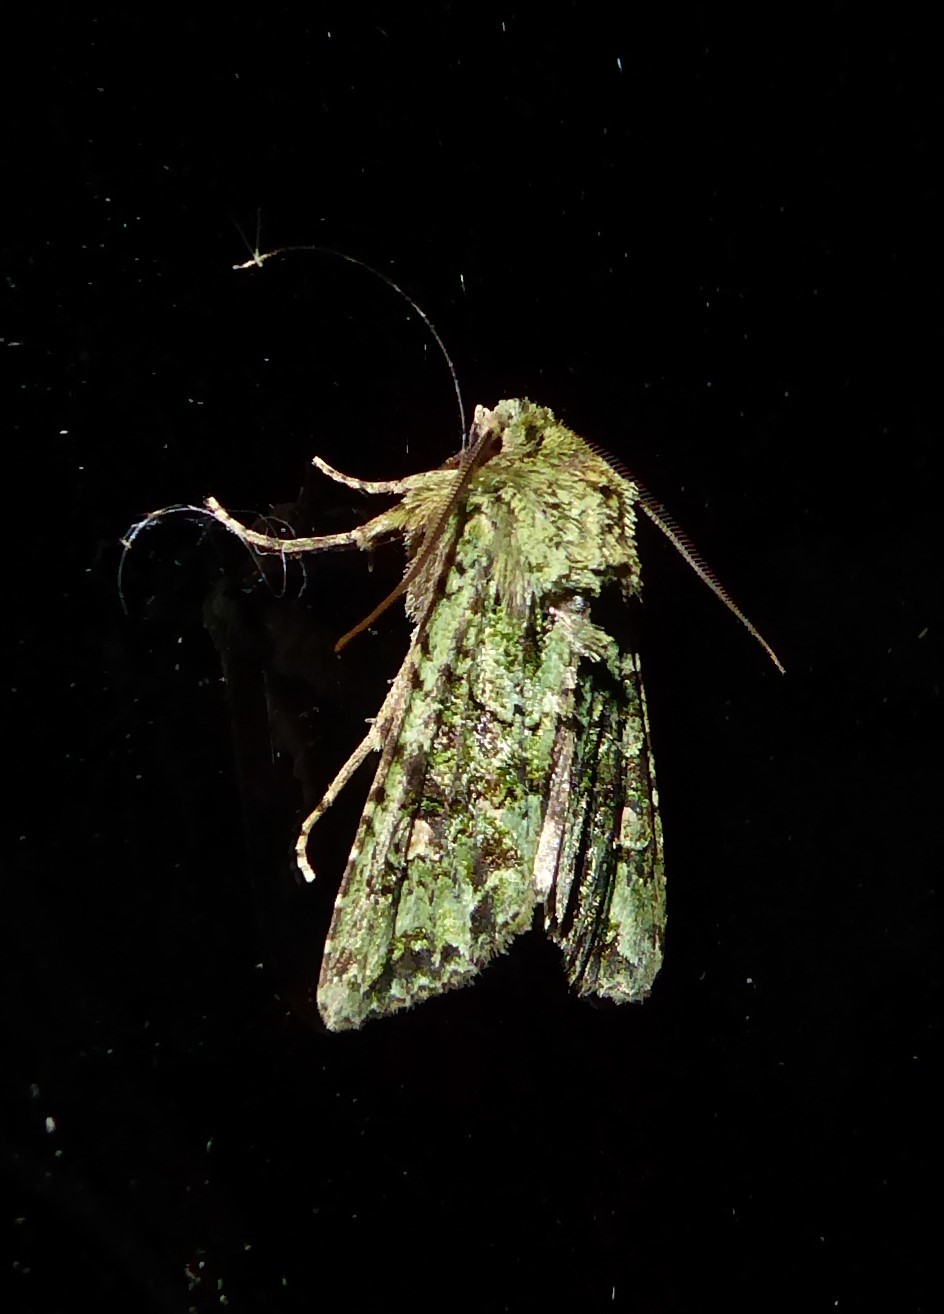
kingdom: Animalia
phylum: Arthropoda
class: Insecta
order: Lepidoptera
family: Noctuidae
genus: Ichneutica
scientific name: Ichneutica
